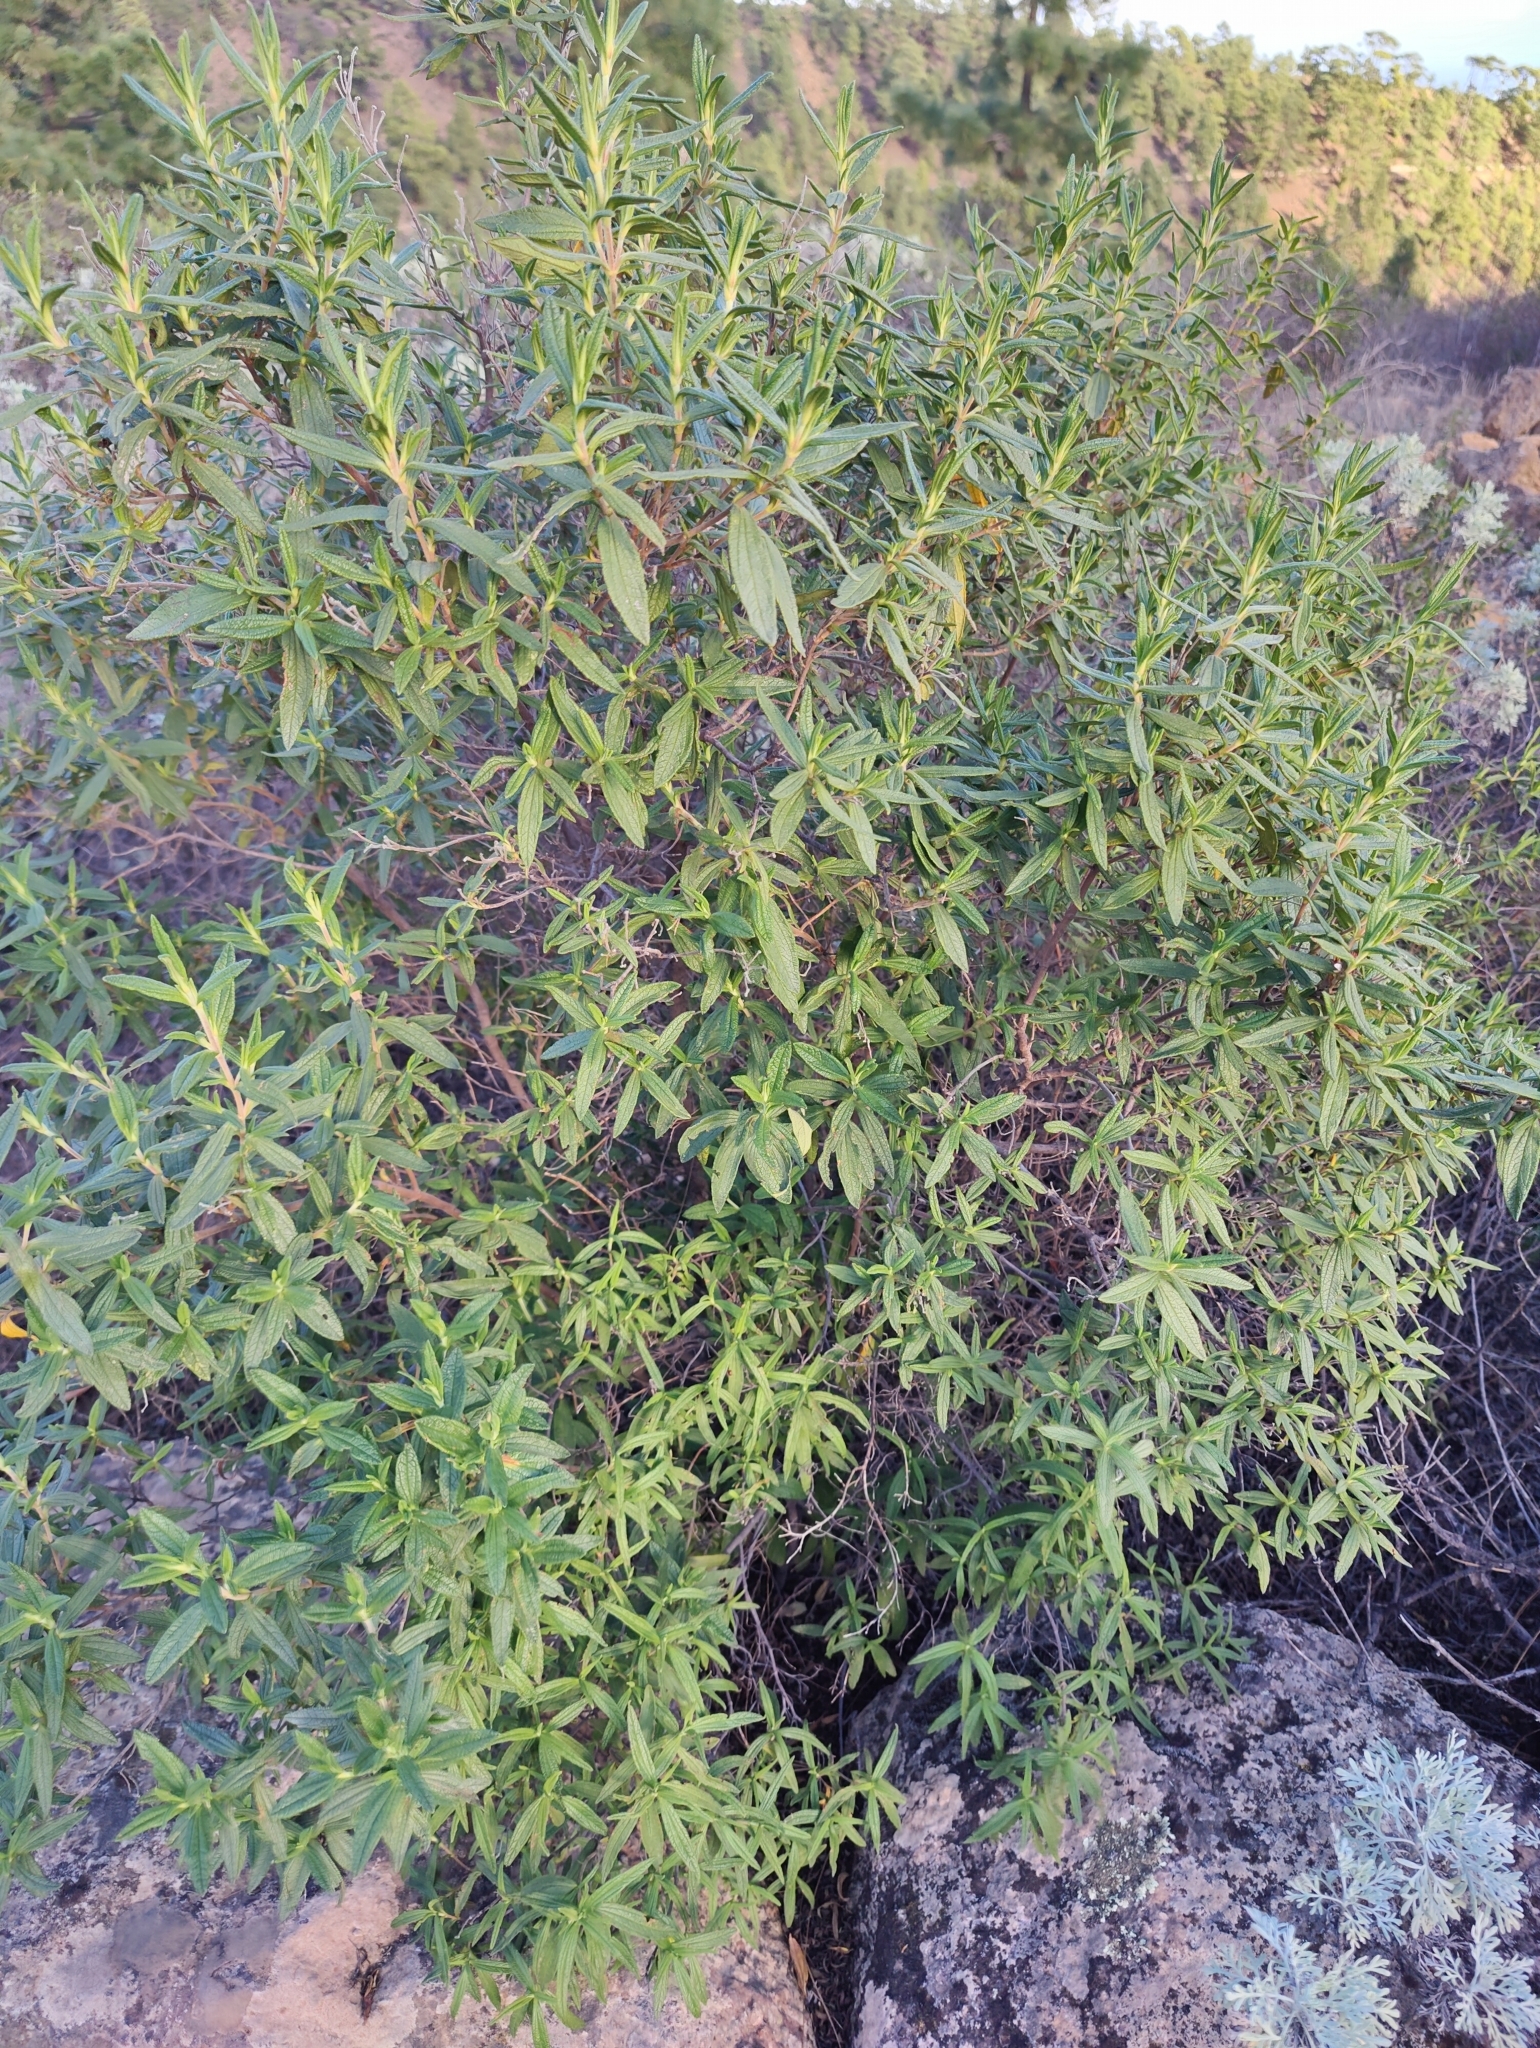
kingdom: Plantae
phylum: Tracheophyta
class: Magnoliopsida
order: Malvales
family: Cistaceae
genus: Cistus
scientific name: Cistus monspeliensis
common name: Montpelier cistus
